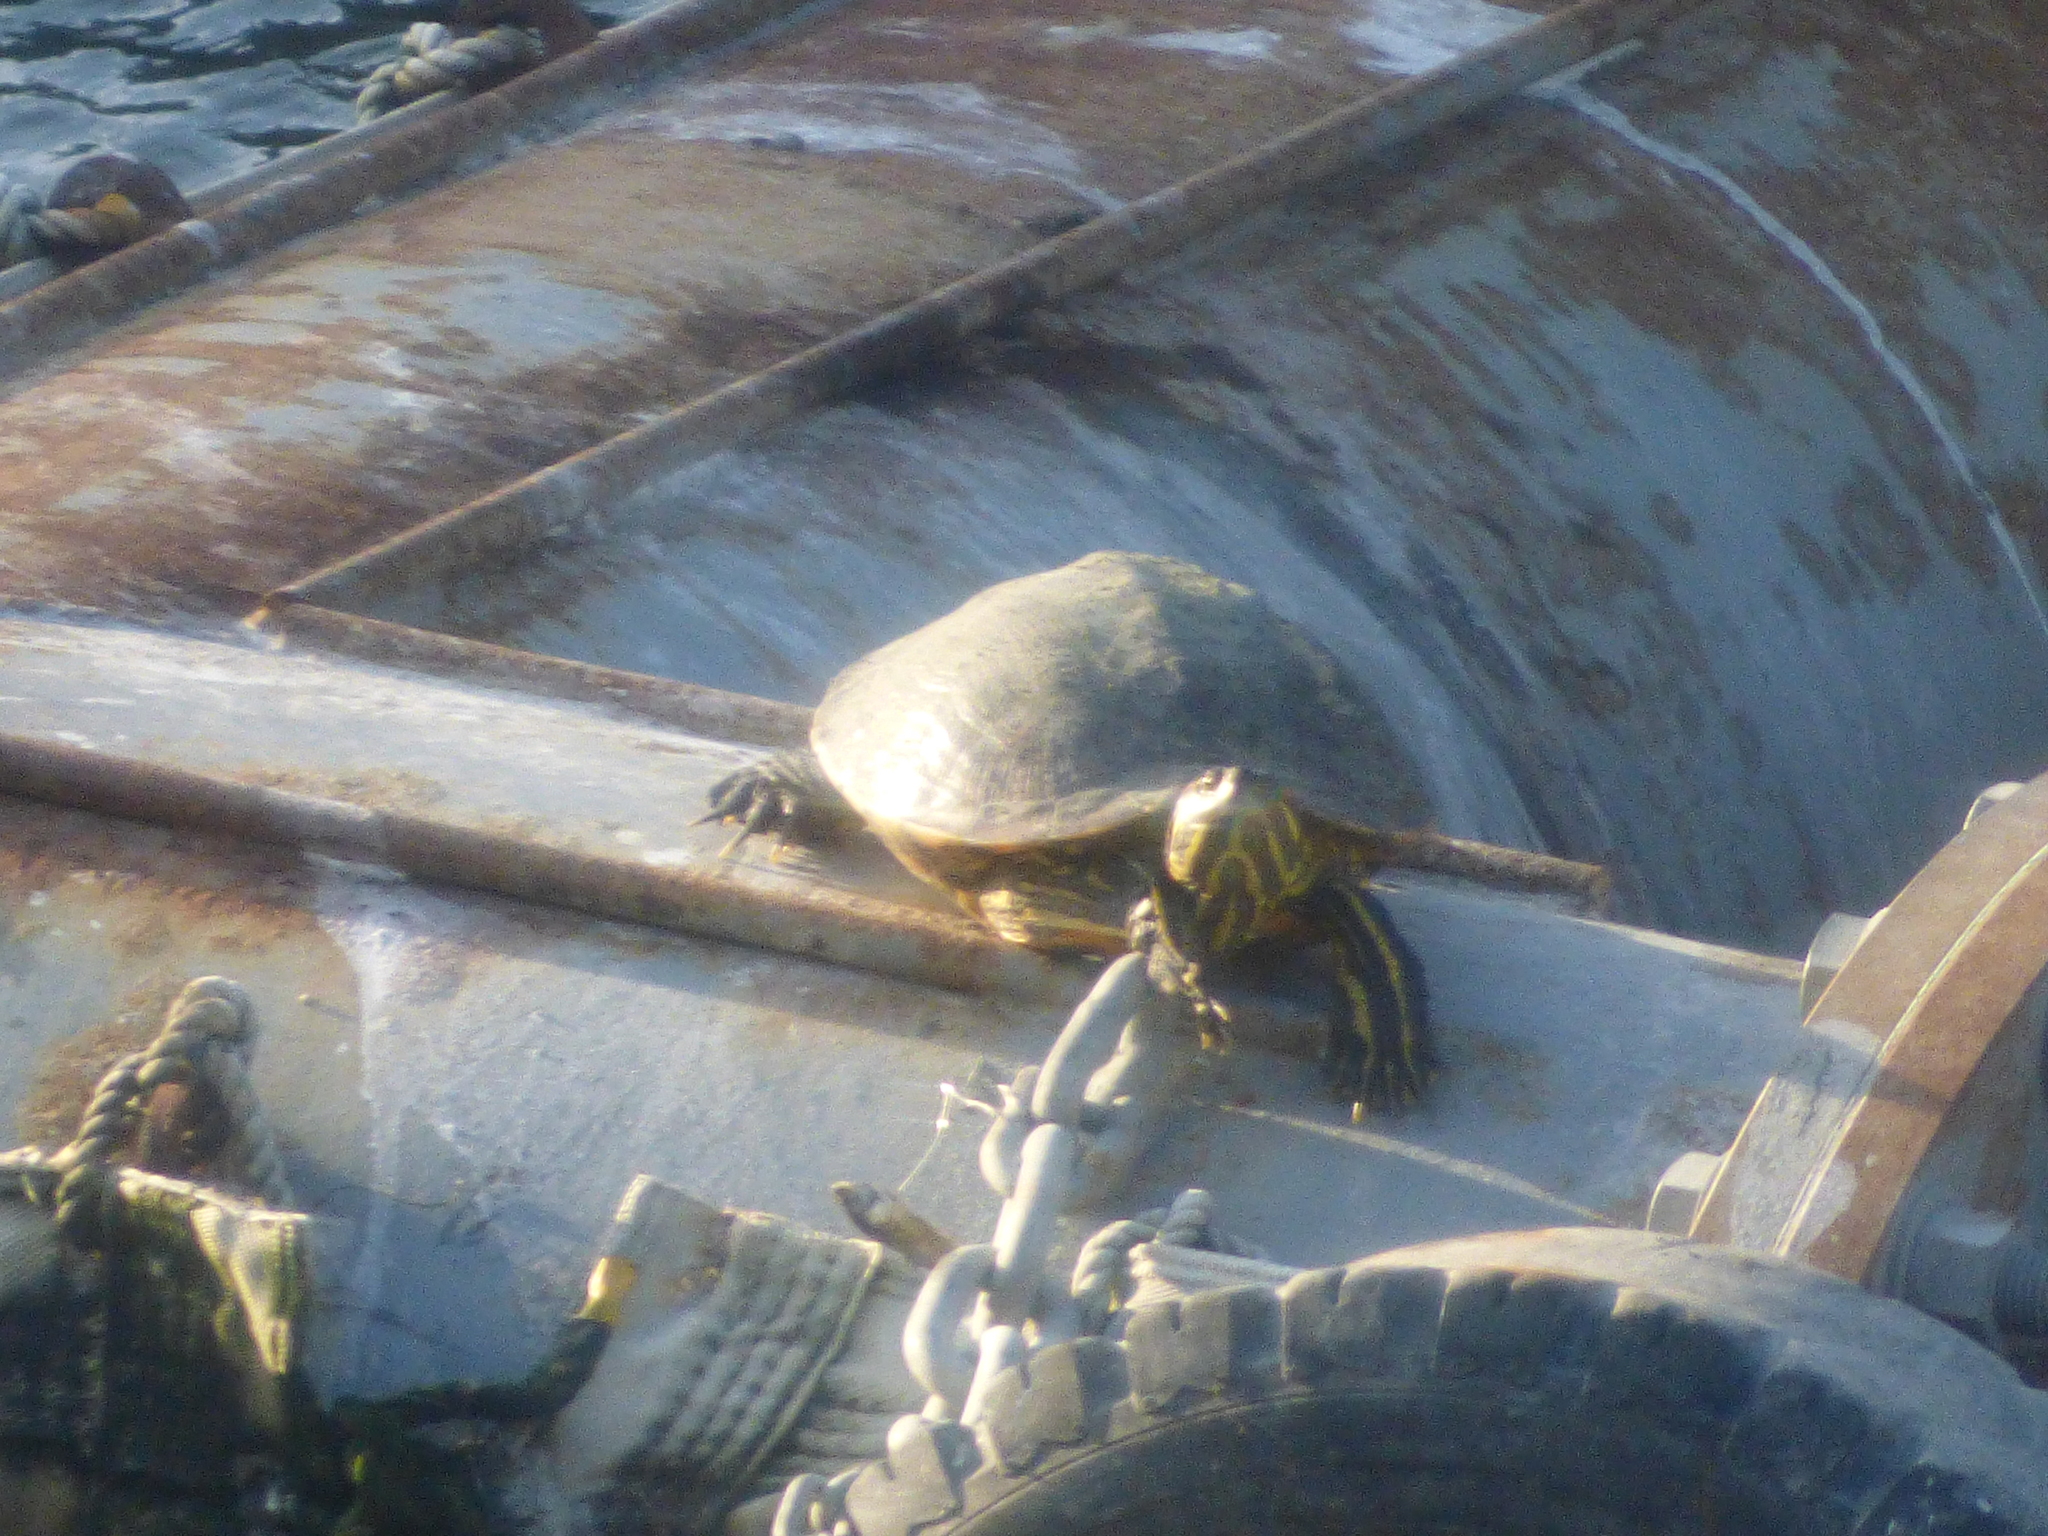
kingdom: Animalia
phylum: Chordata
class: Testudines
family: Emydidae
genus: Trachemys
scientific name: Trachemys scripta
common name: Slider
